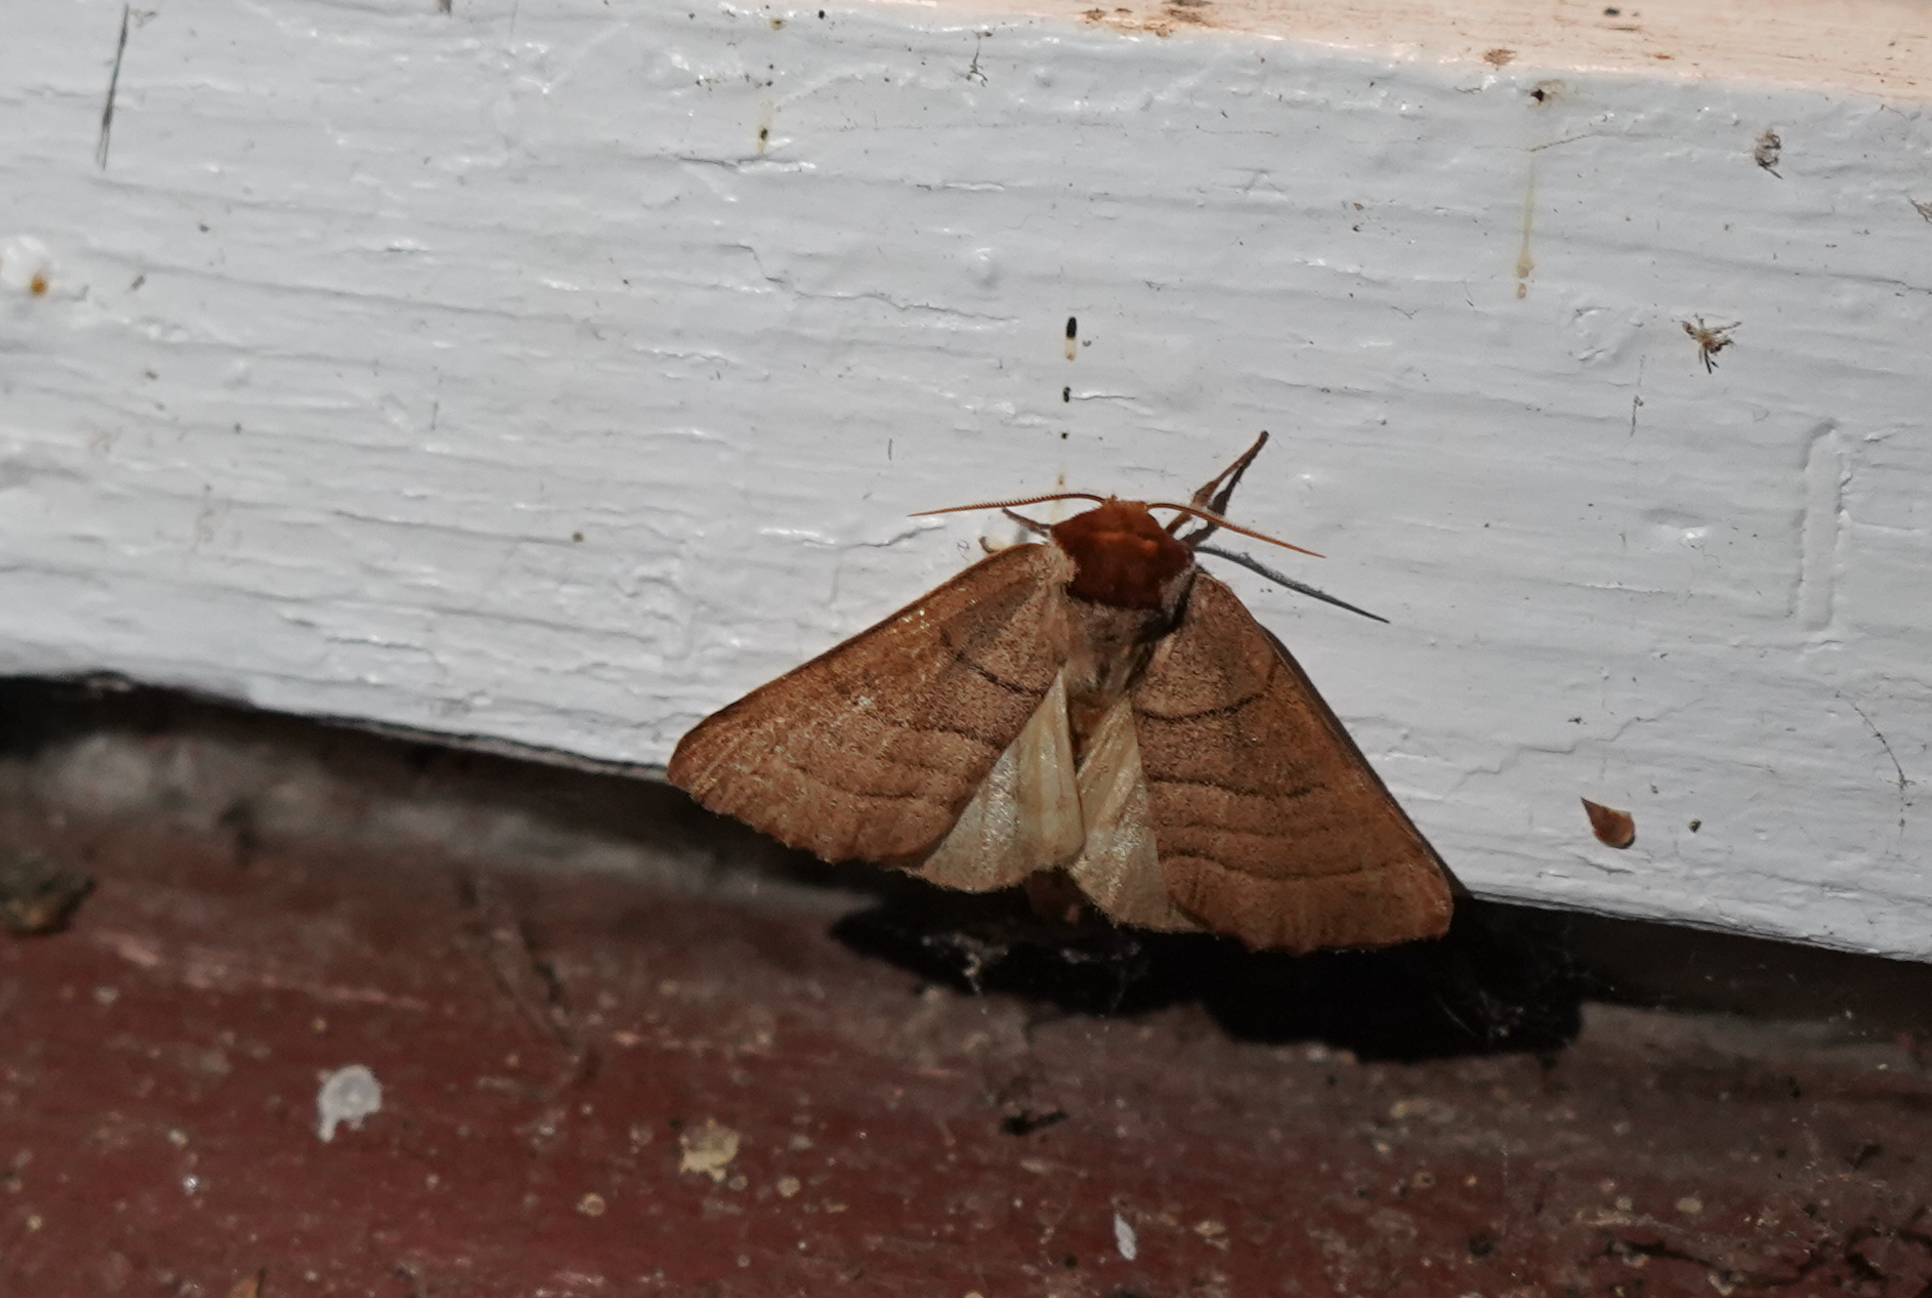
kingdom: Animalia
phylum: Arthropoda
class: Insecta
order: Lepidoptera
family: Notodontidae
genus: Datana
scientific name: Datana ministra
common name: Yellow-necked caterpillar moth
